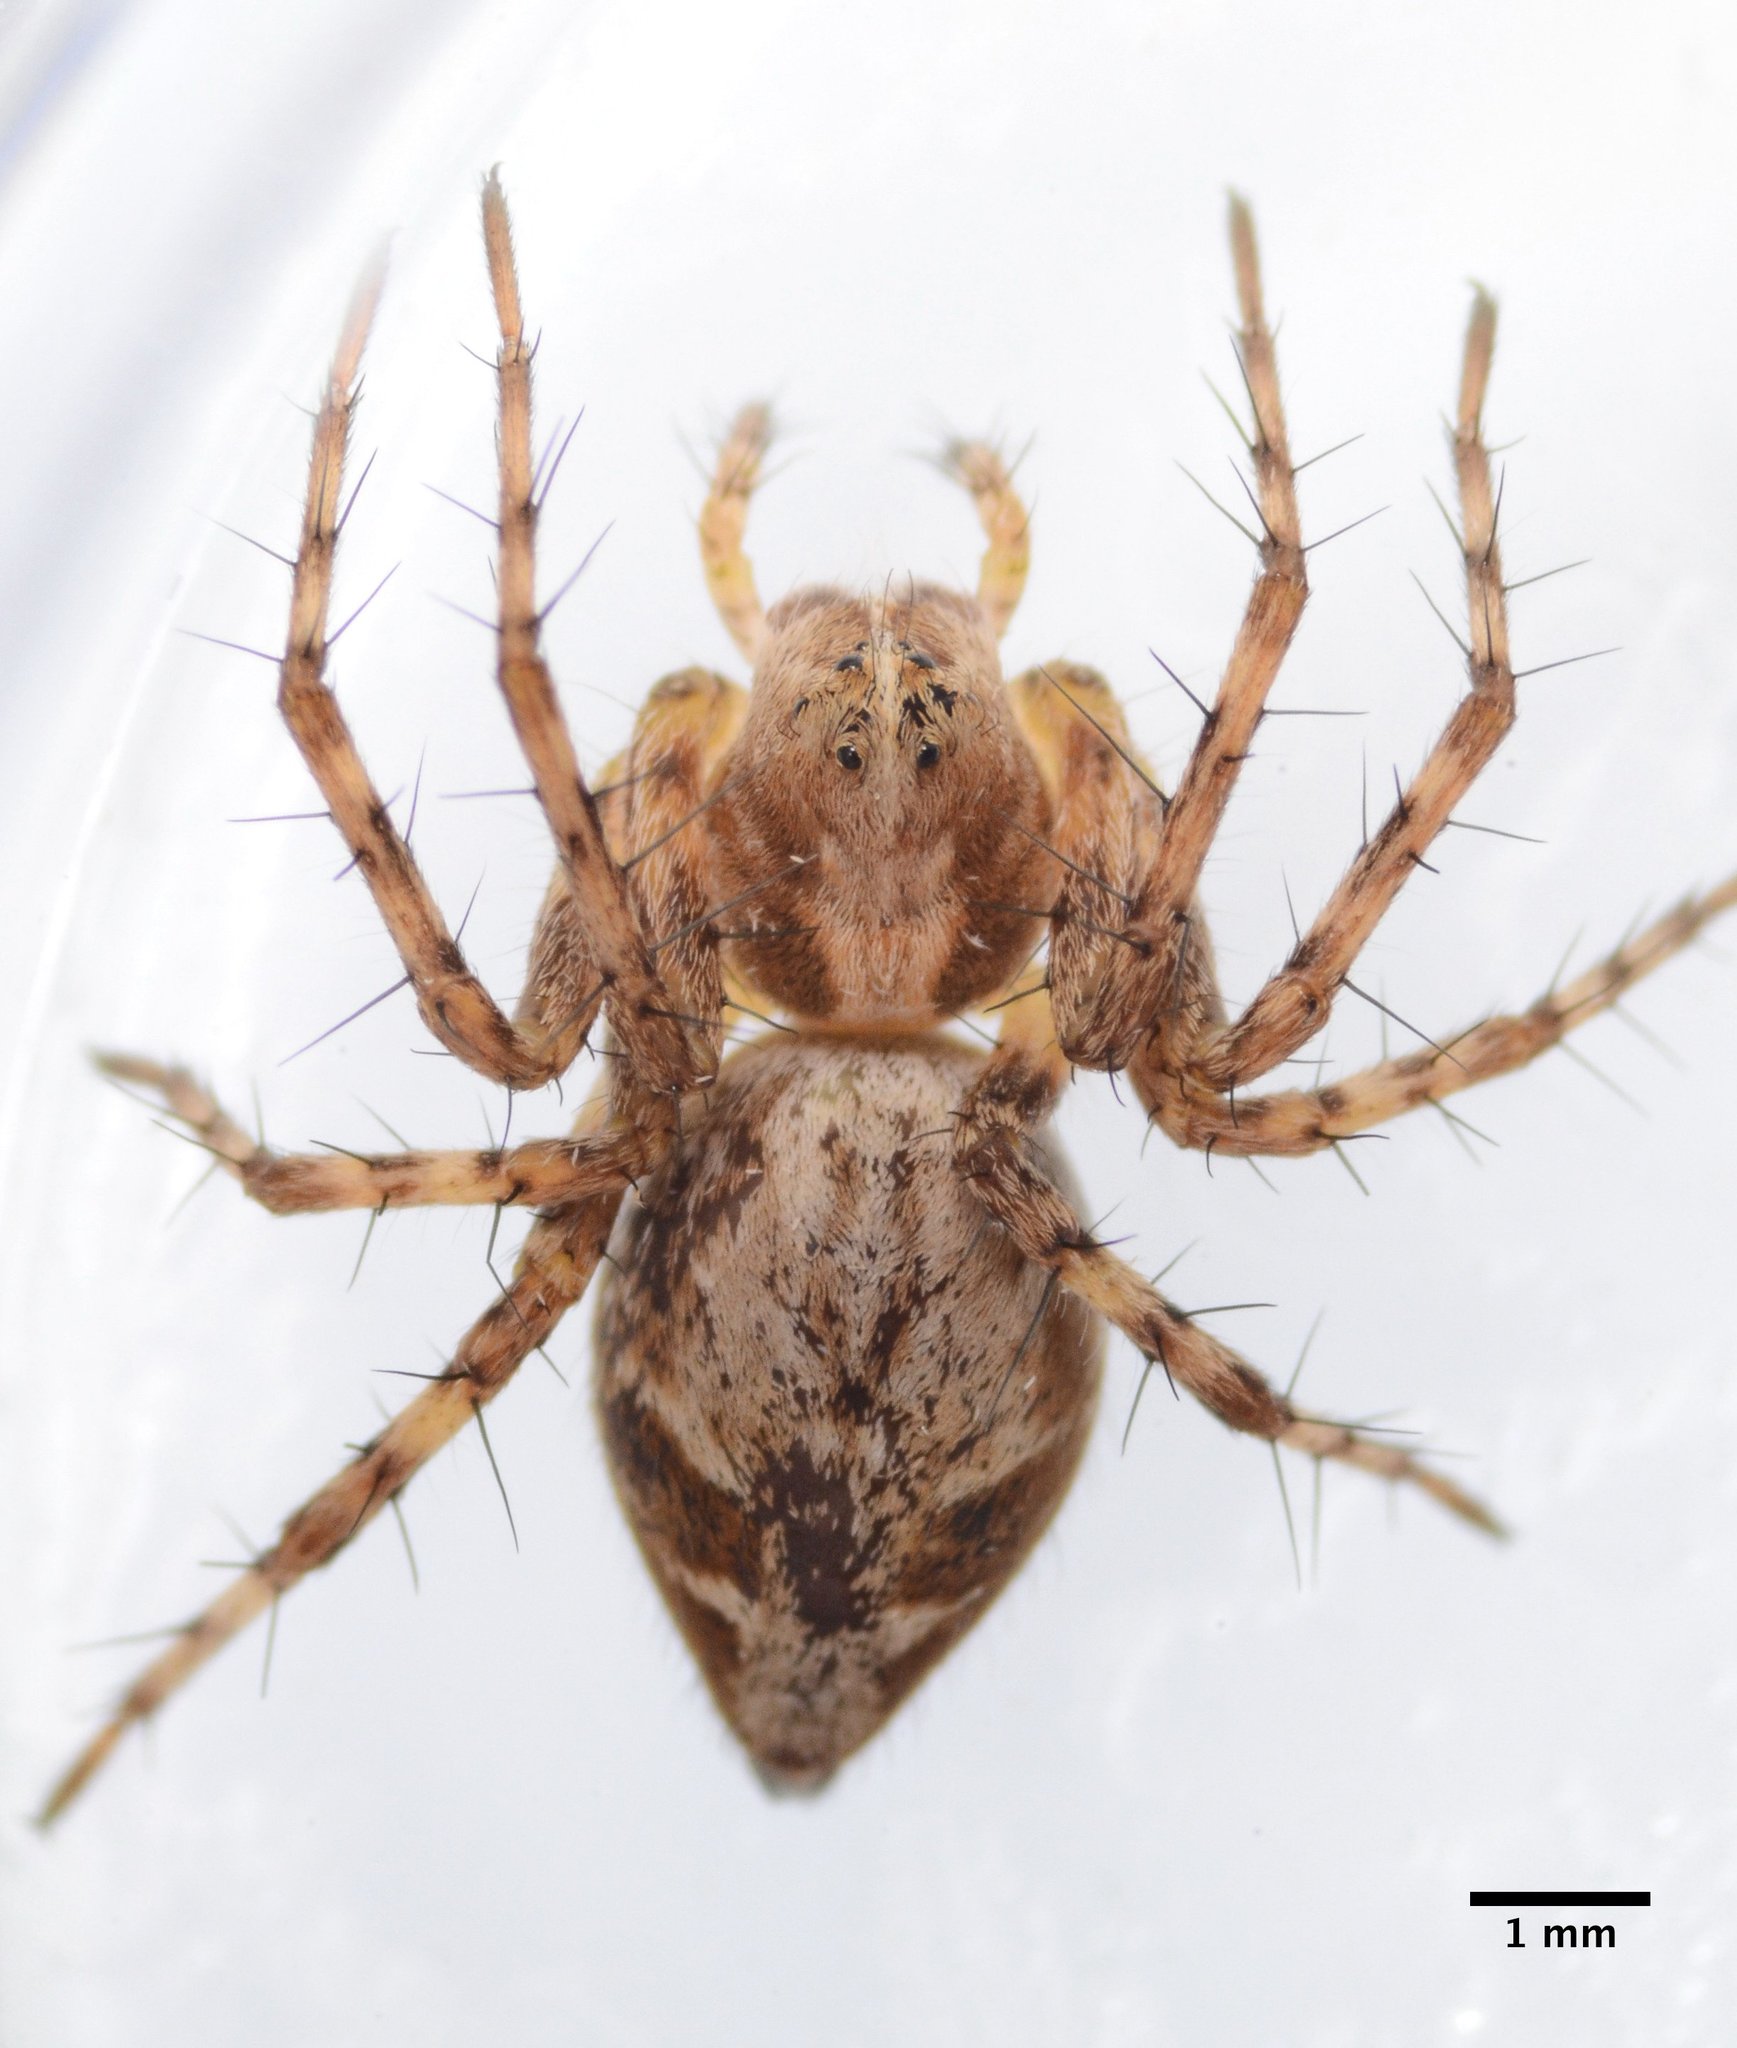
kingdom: Animalia
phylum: Arthropoda
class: Arachnida
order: Araneae
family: Oxyopidae
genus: Oxyopes
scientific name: Oxyopes scalaris
